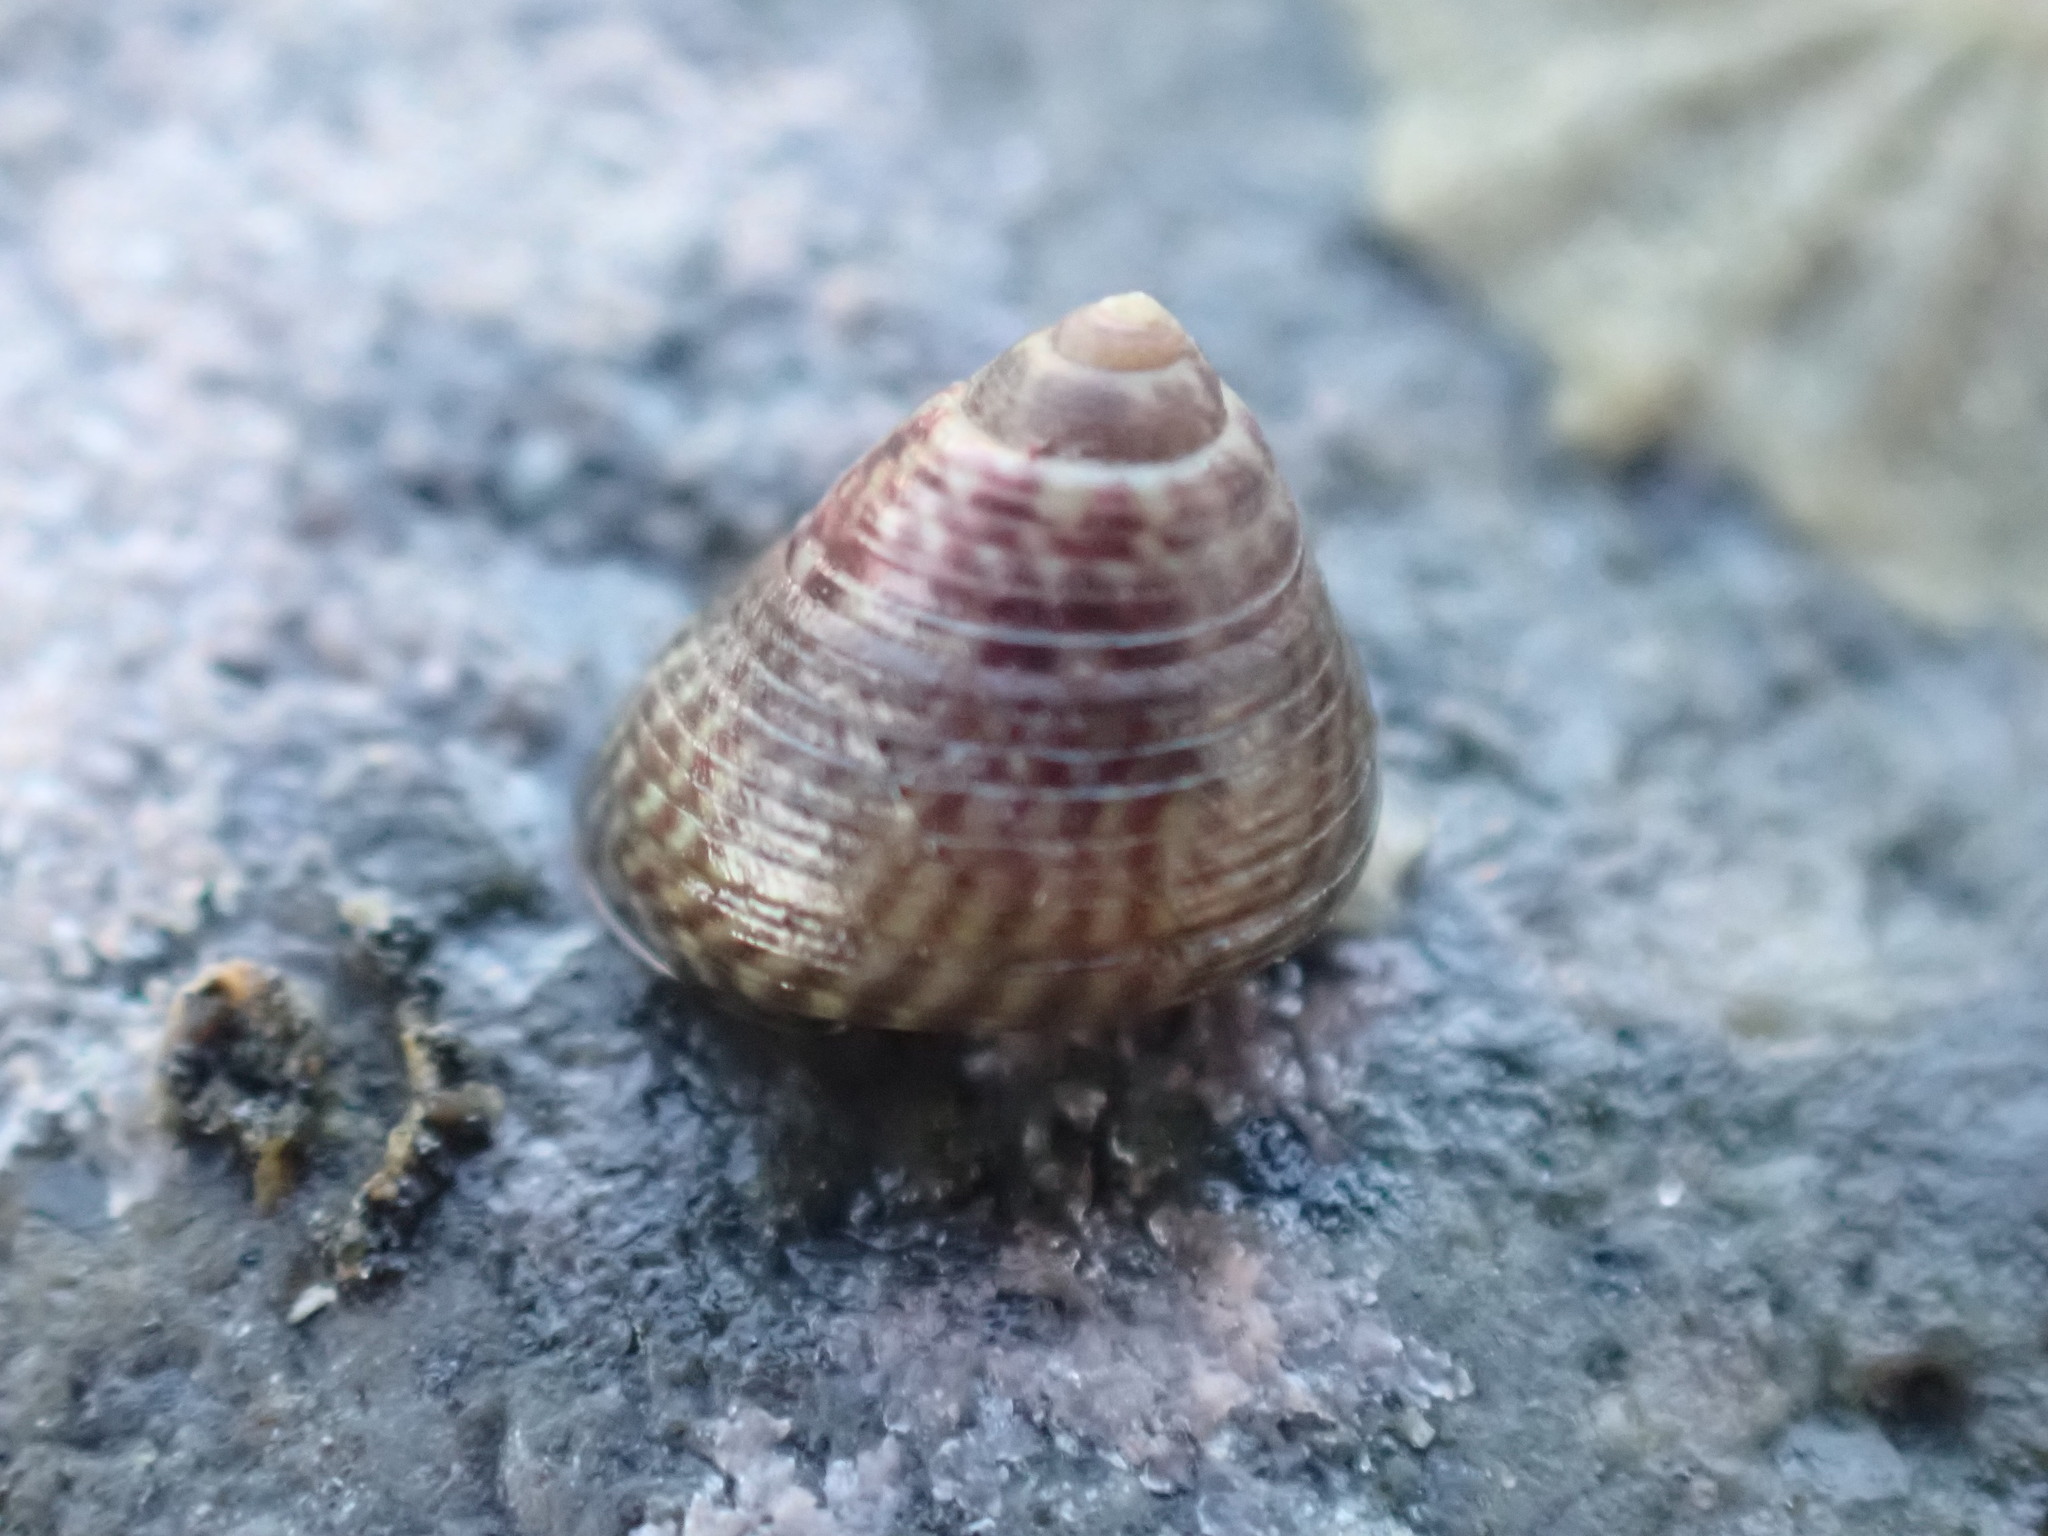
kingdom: Animalia
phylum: Mollusca
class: Gastropoda
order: Trochida
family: Trochidae
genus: Micrelenchus
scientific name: Micrelenchus sanguineus
